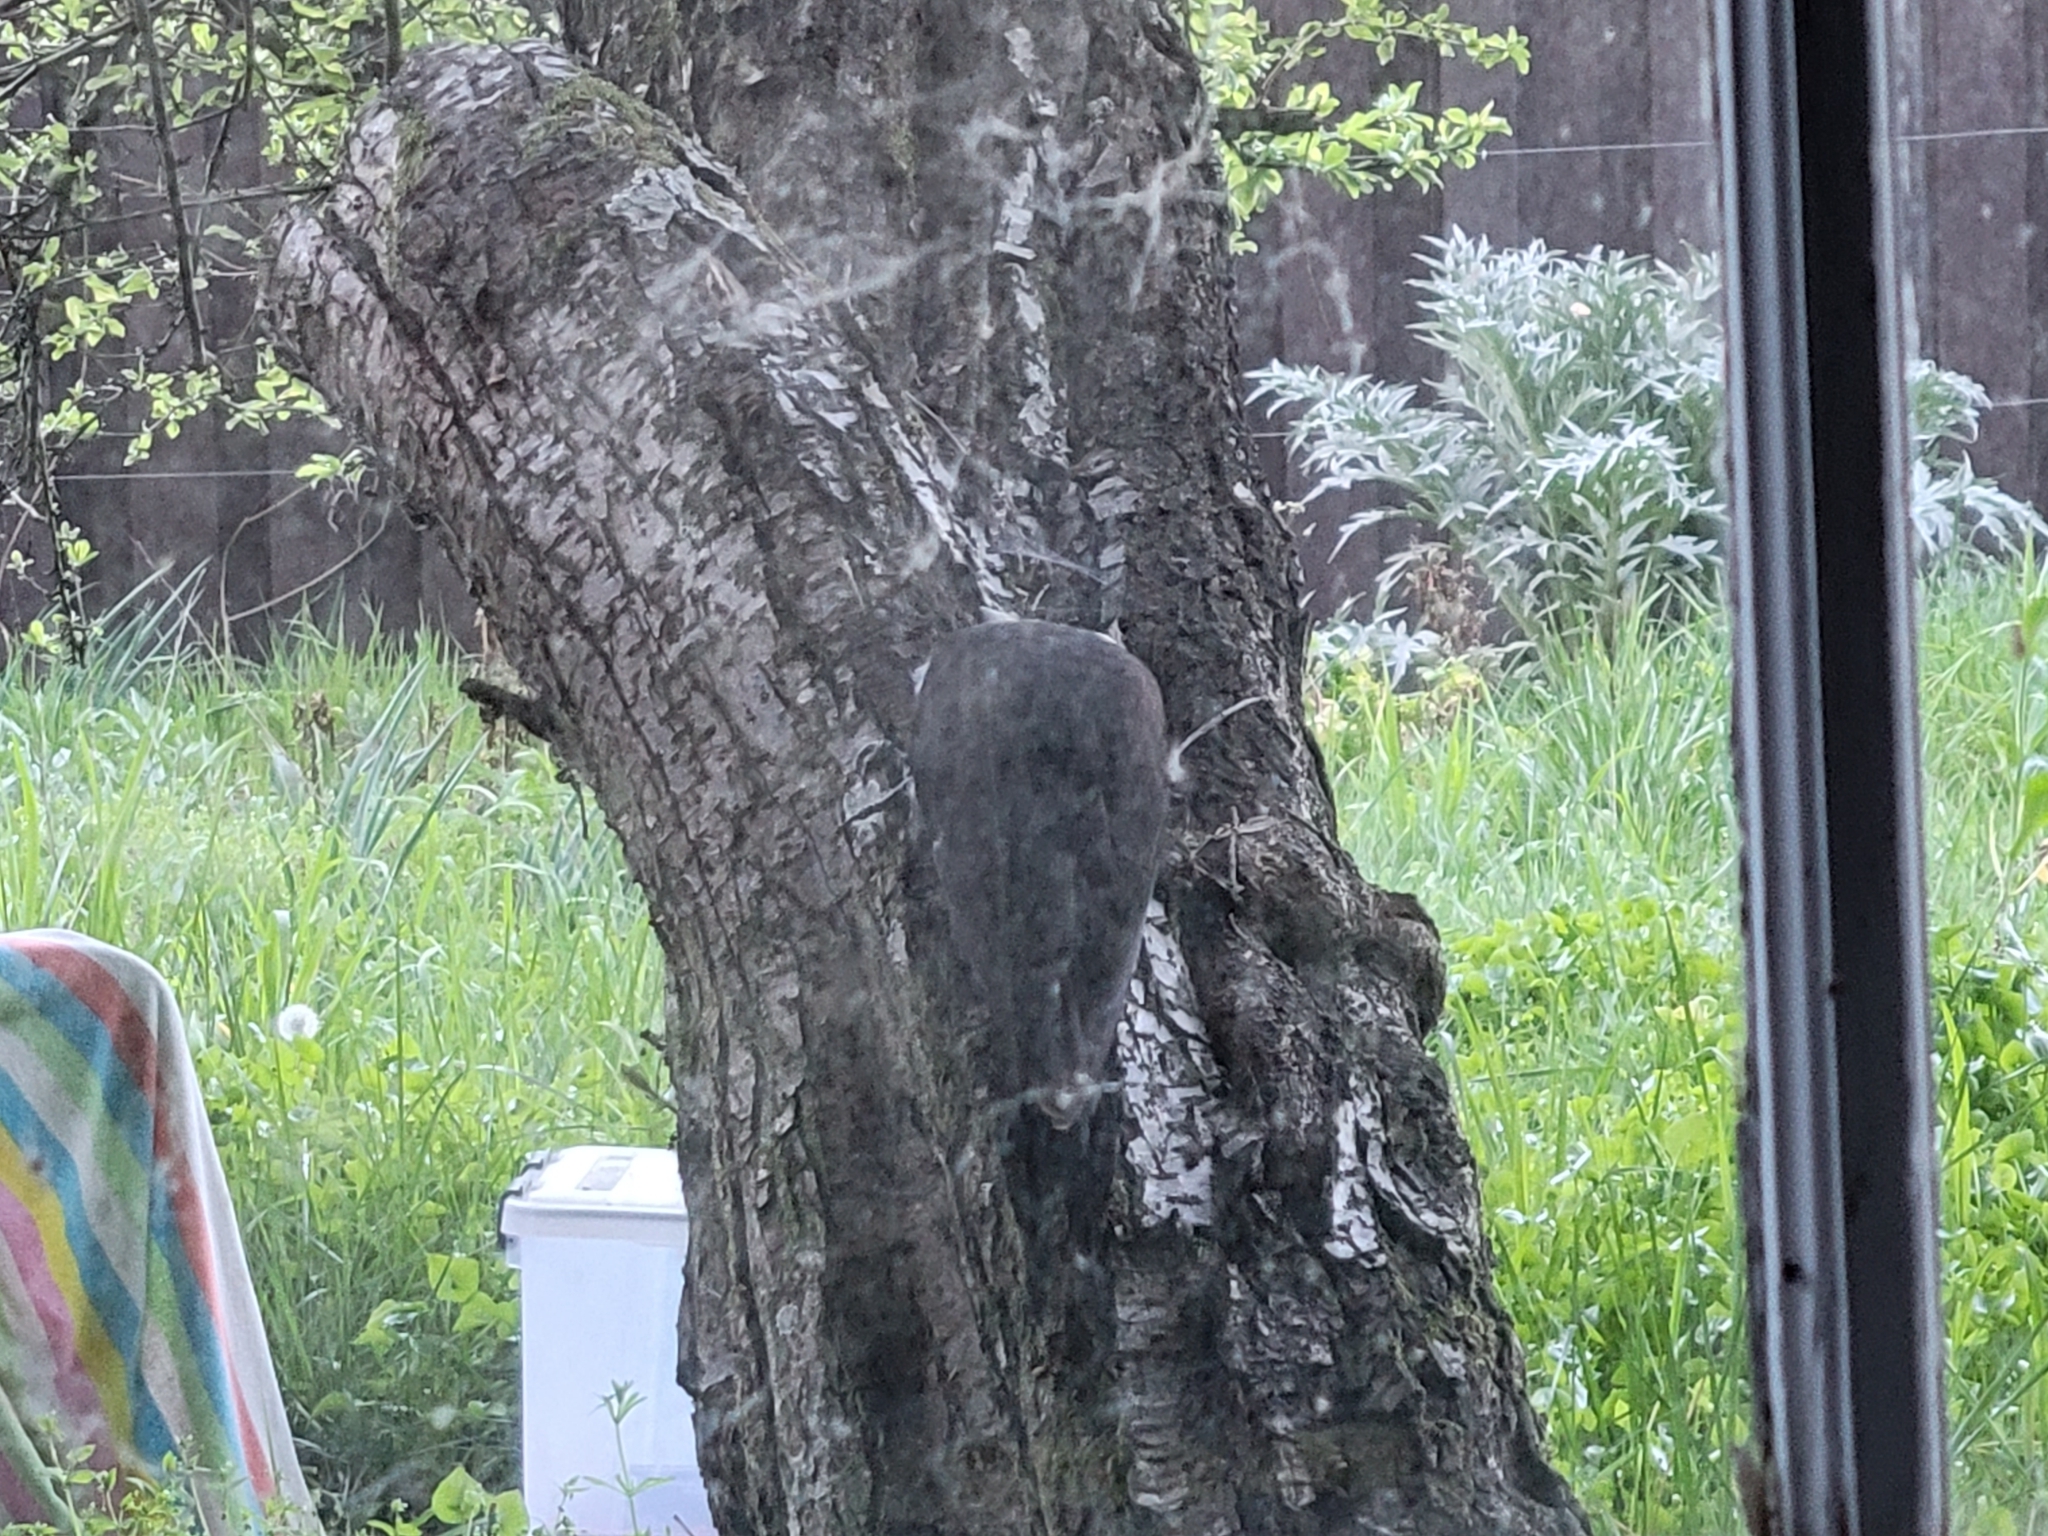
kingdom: Animalia
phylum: Chordata
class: Aves
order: Piciformes
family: Picidae
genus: Dryocopus
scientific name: Dryocopus pileatus
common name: Pileated woodpecker
